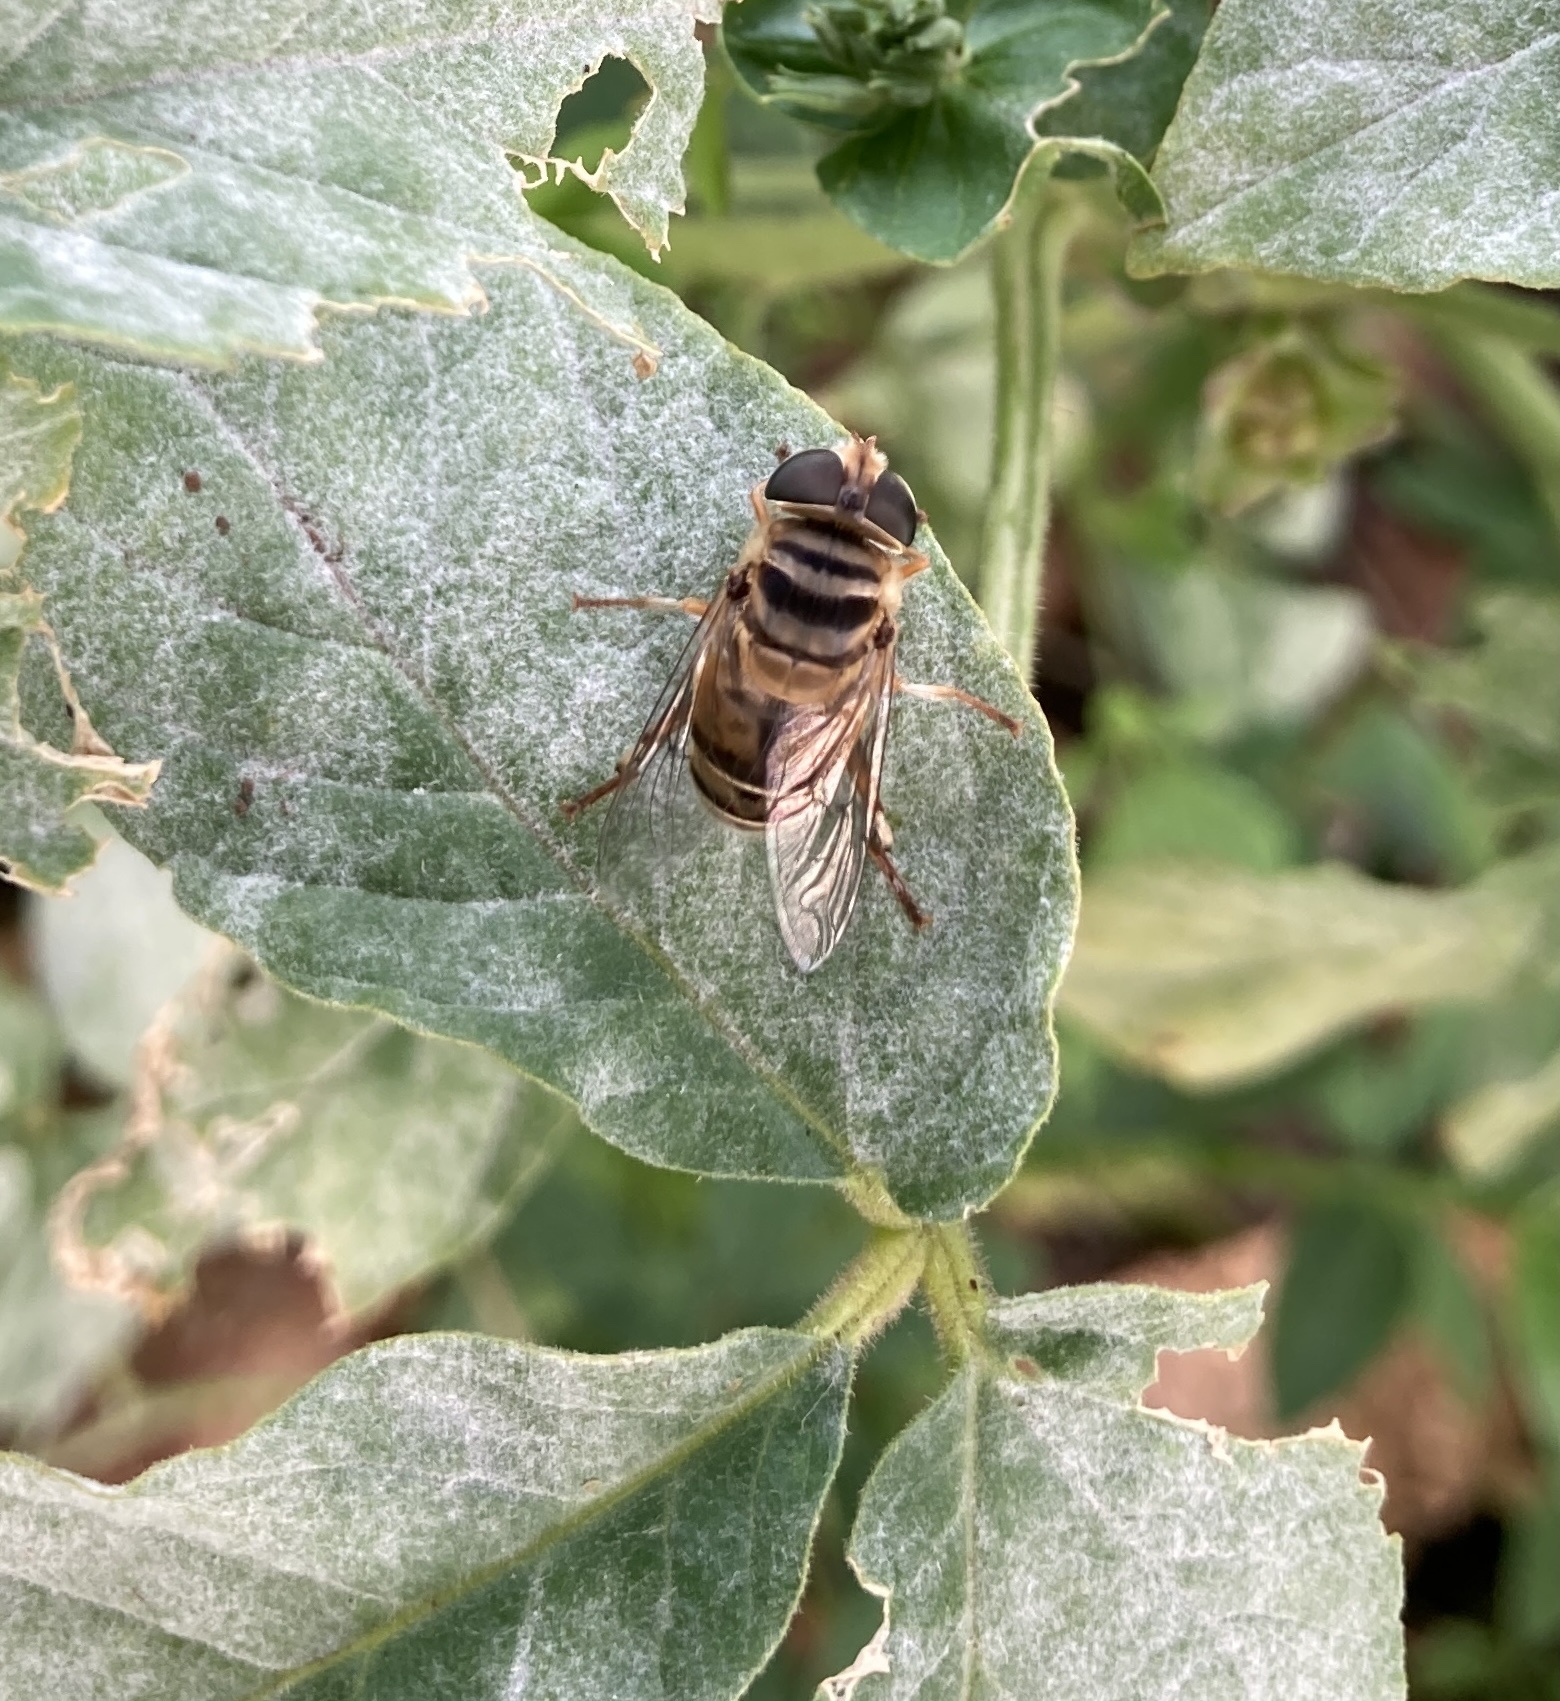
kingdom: Animalia
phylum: Arthropoda
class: Insecta
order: Diptera
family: Syrphidae
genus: Palpada
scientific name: Palpada vinetorum
